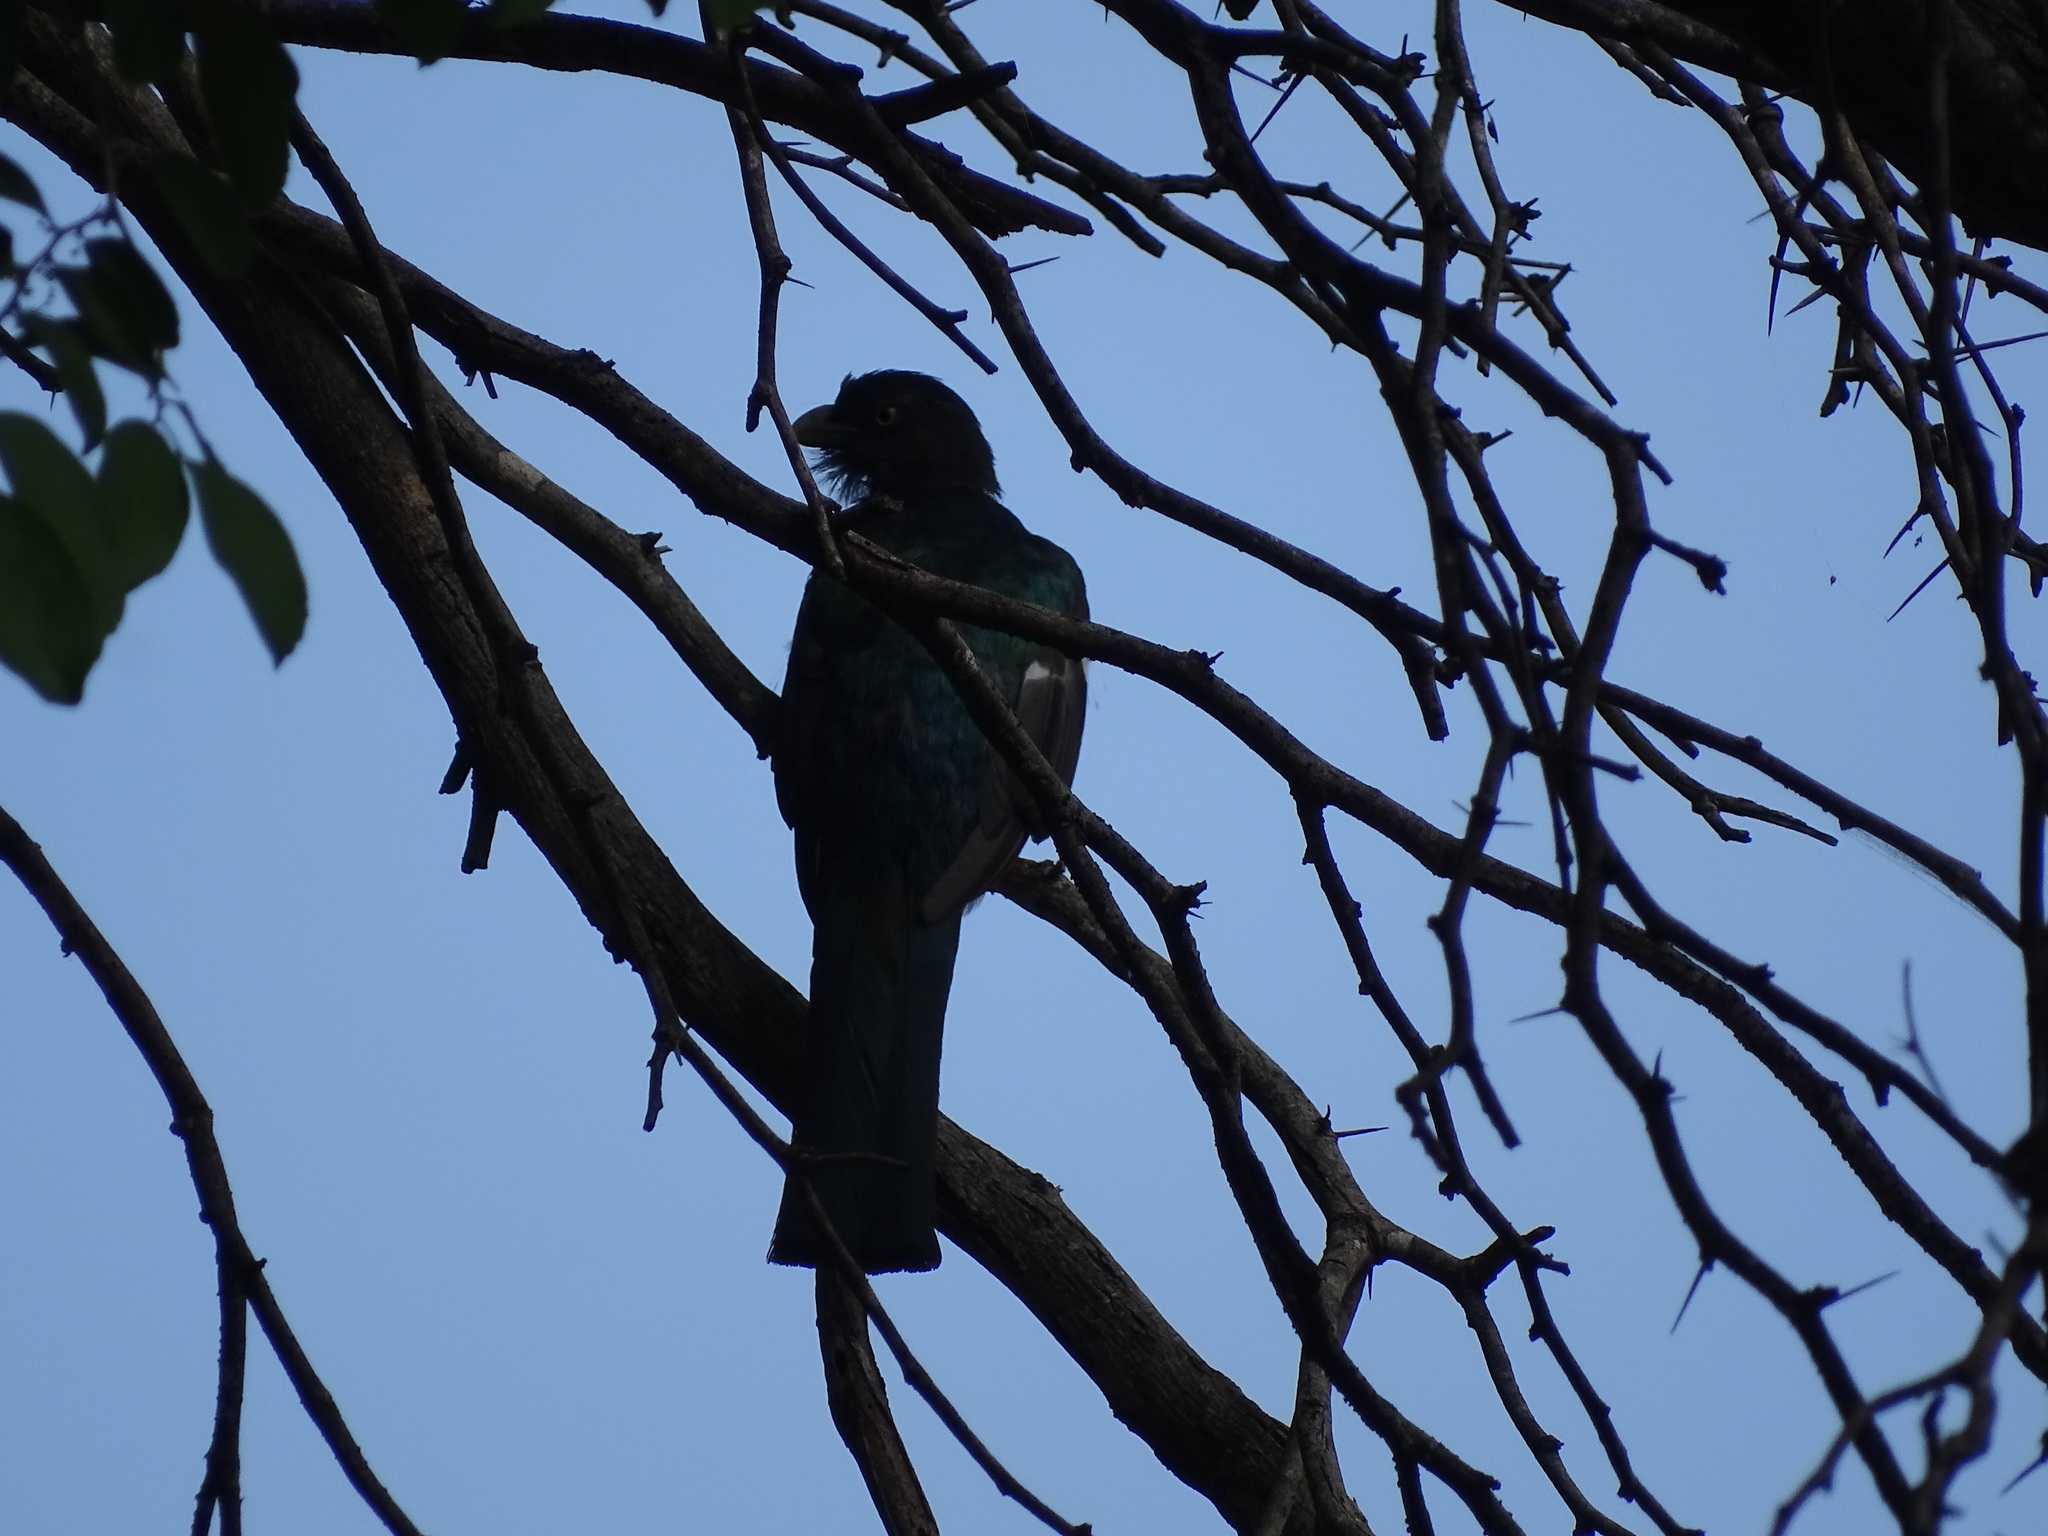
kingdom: Animalia
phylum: Chordata
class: Aves
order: Trogoniformes
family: Trogonidae
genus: Trogon
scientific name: Trogon citreolus
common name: Citreoline trogon
